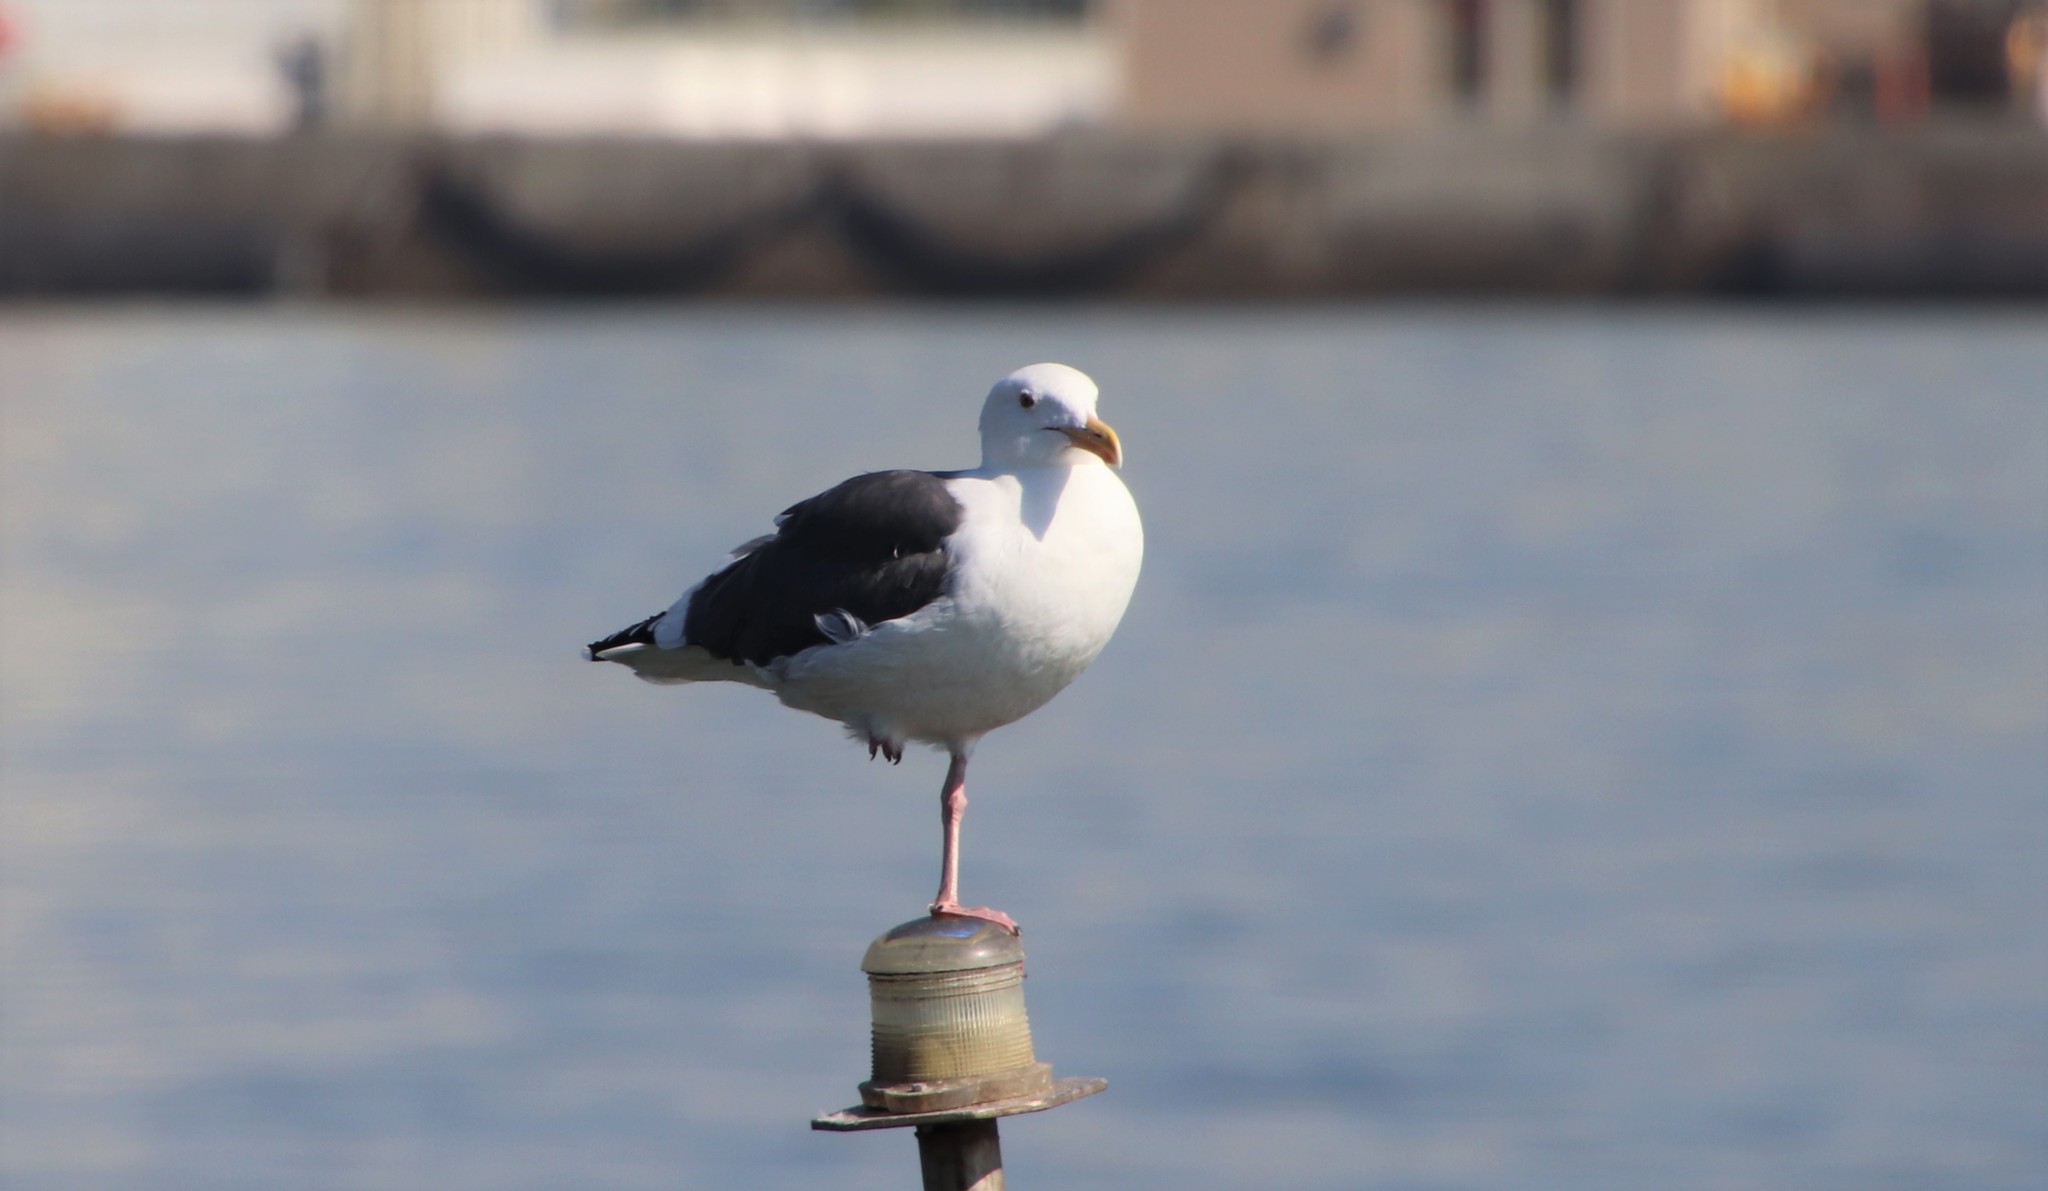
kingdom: Animalia
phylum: Chordata
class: Aves
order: Charadriiformes
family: Laridae
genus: Larus
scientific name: Larus occidentalis
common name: Western gull
